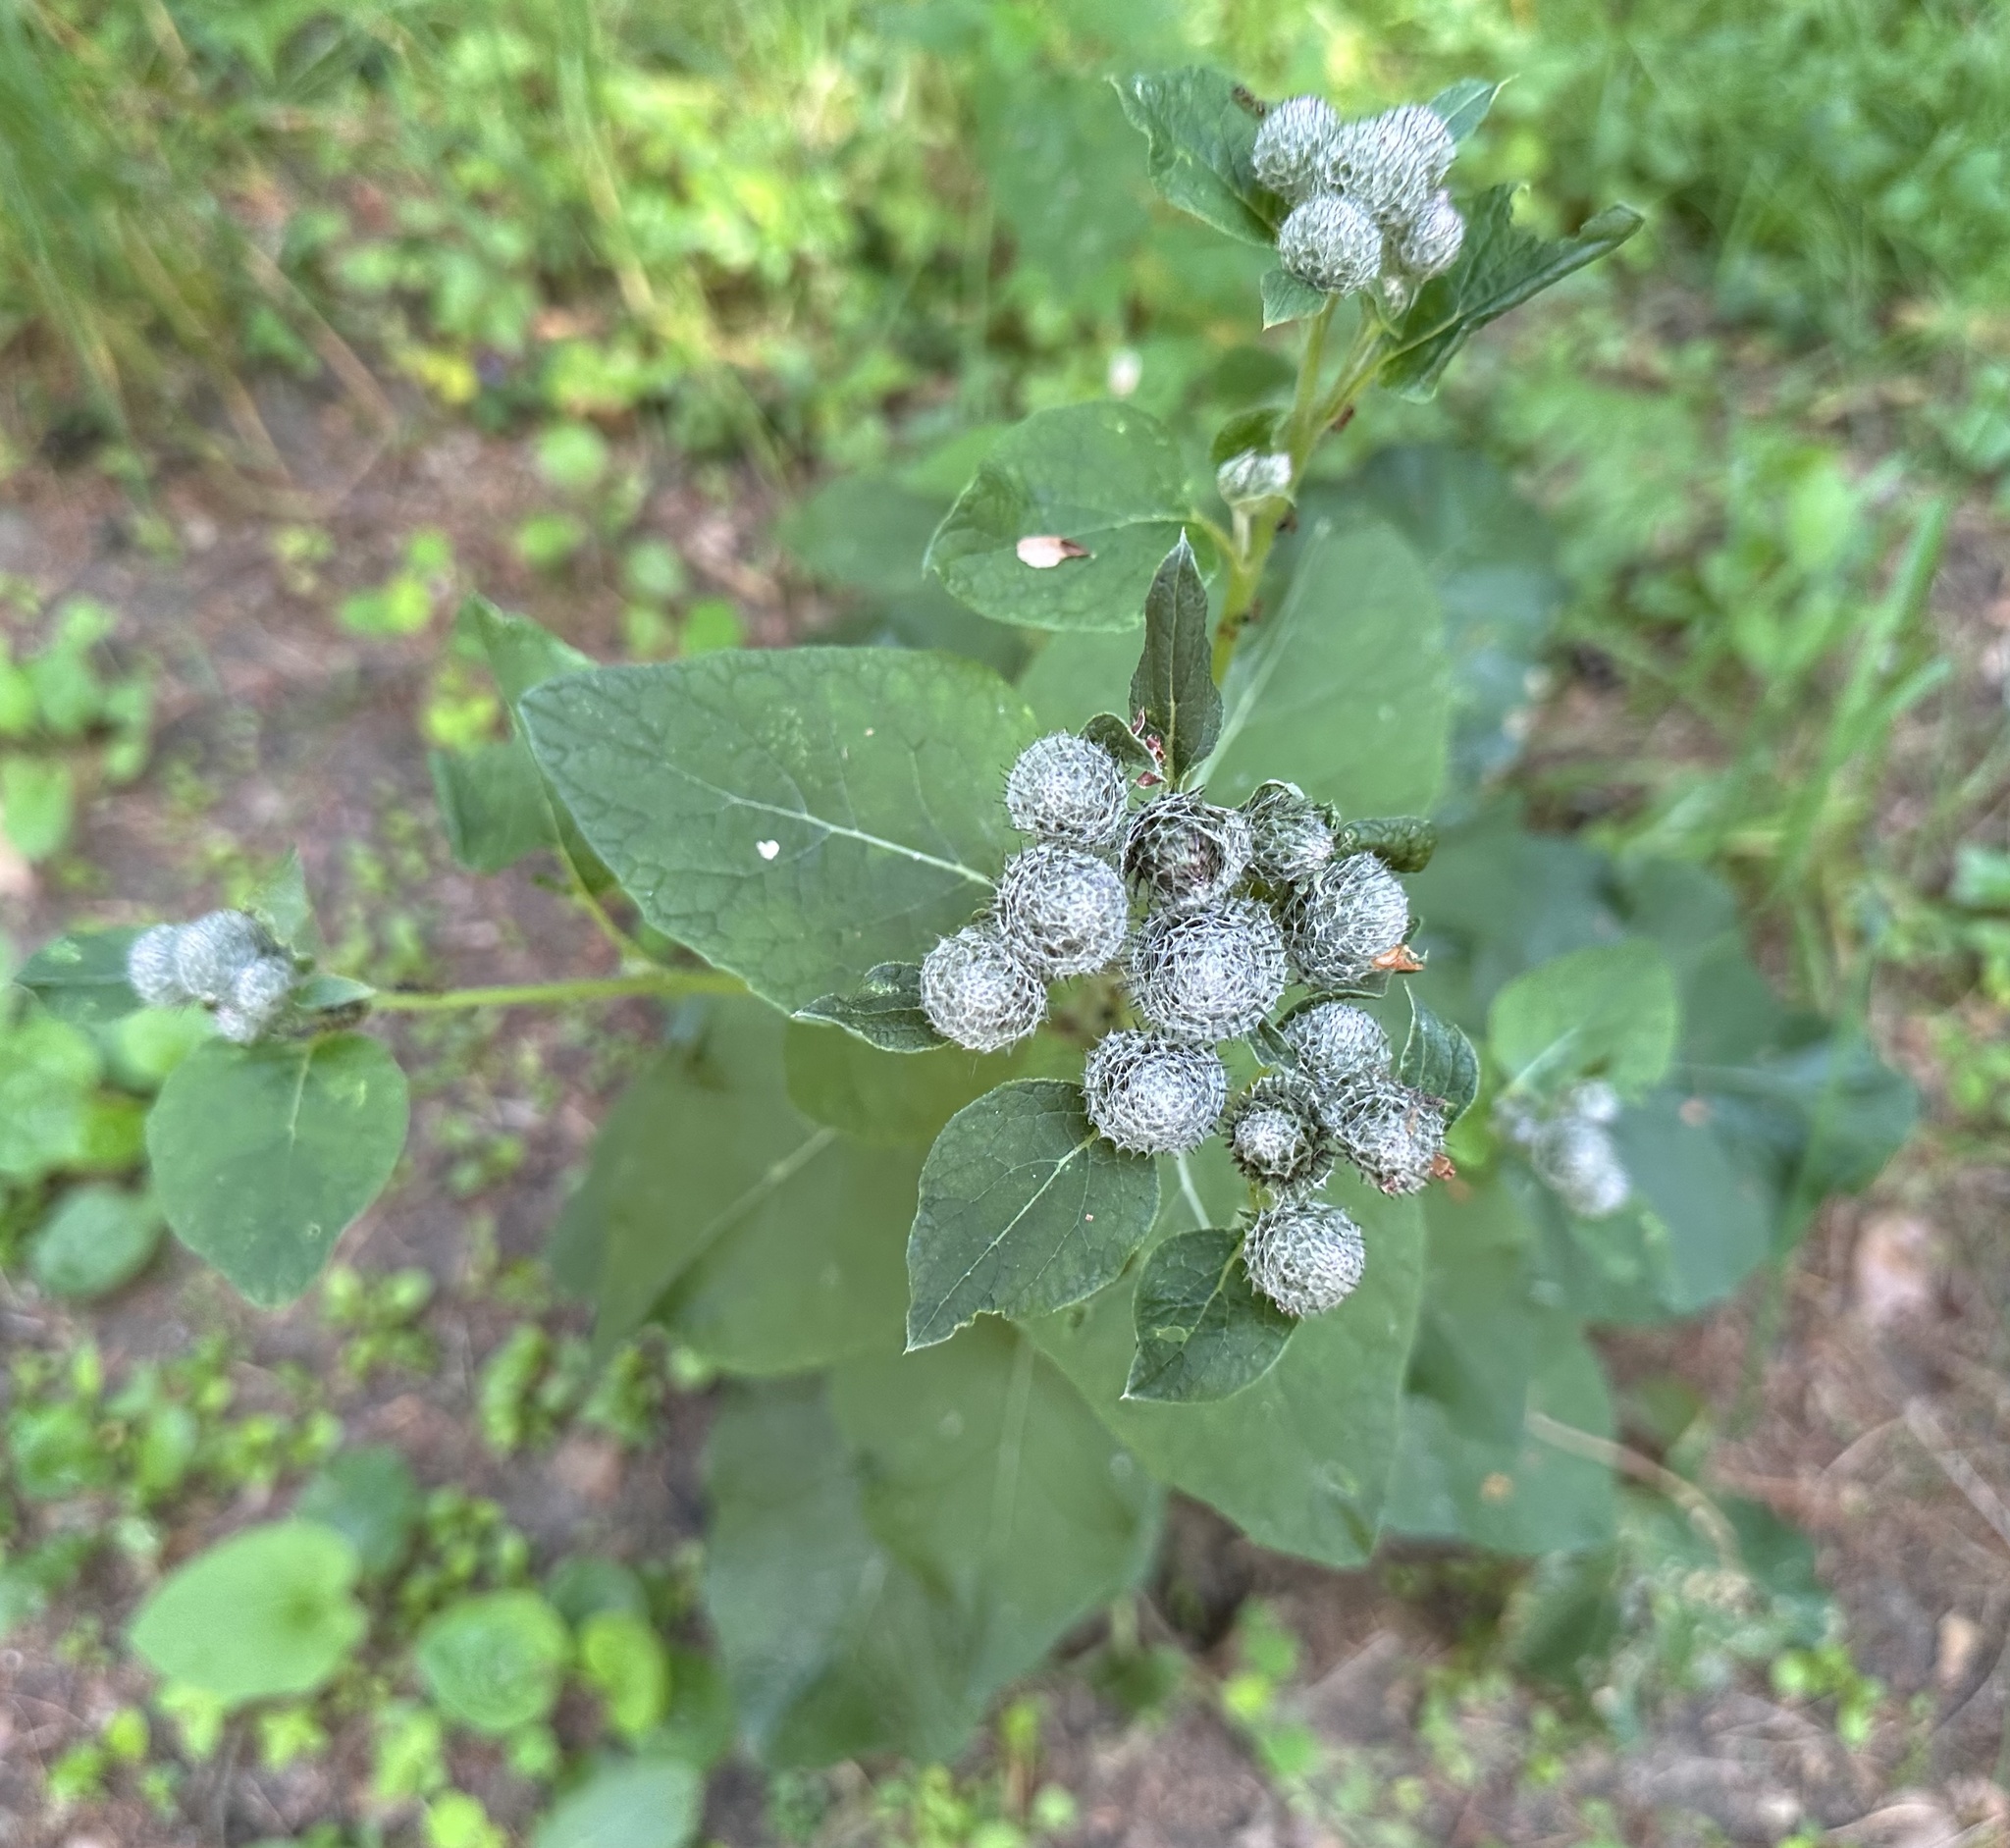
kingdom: Plantae
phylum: Tracheophyta
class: Magnoliopsida
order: Asterales
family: Asteraceae
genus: Arctium
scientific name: Arctium tomentosum
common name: Woolly burdock
